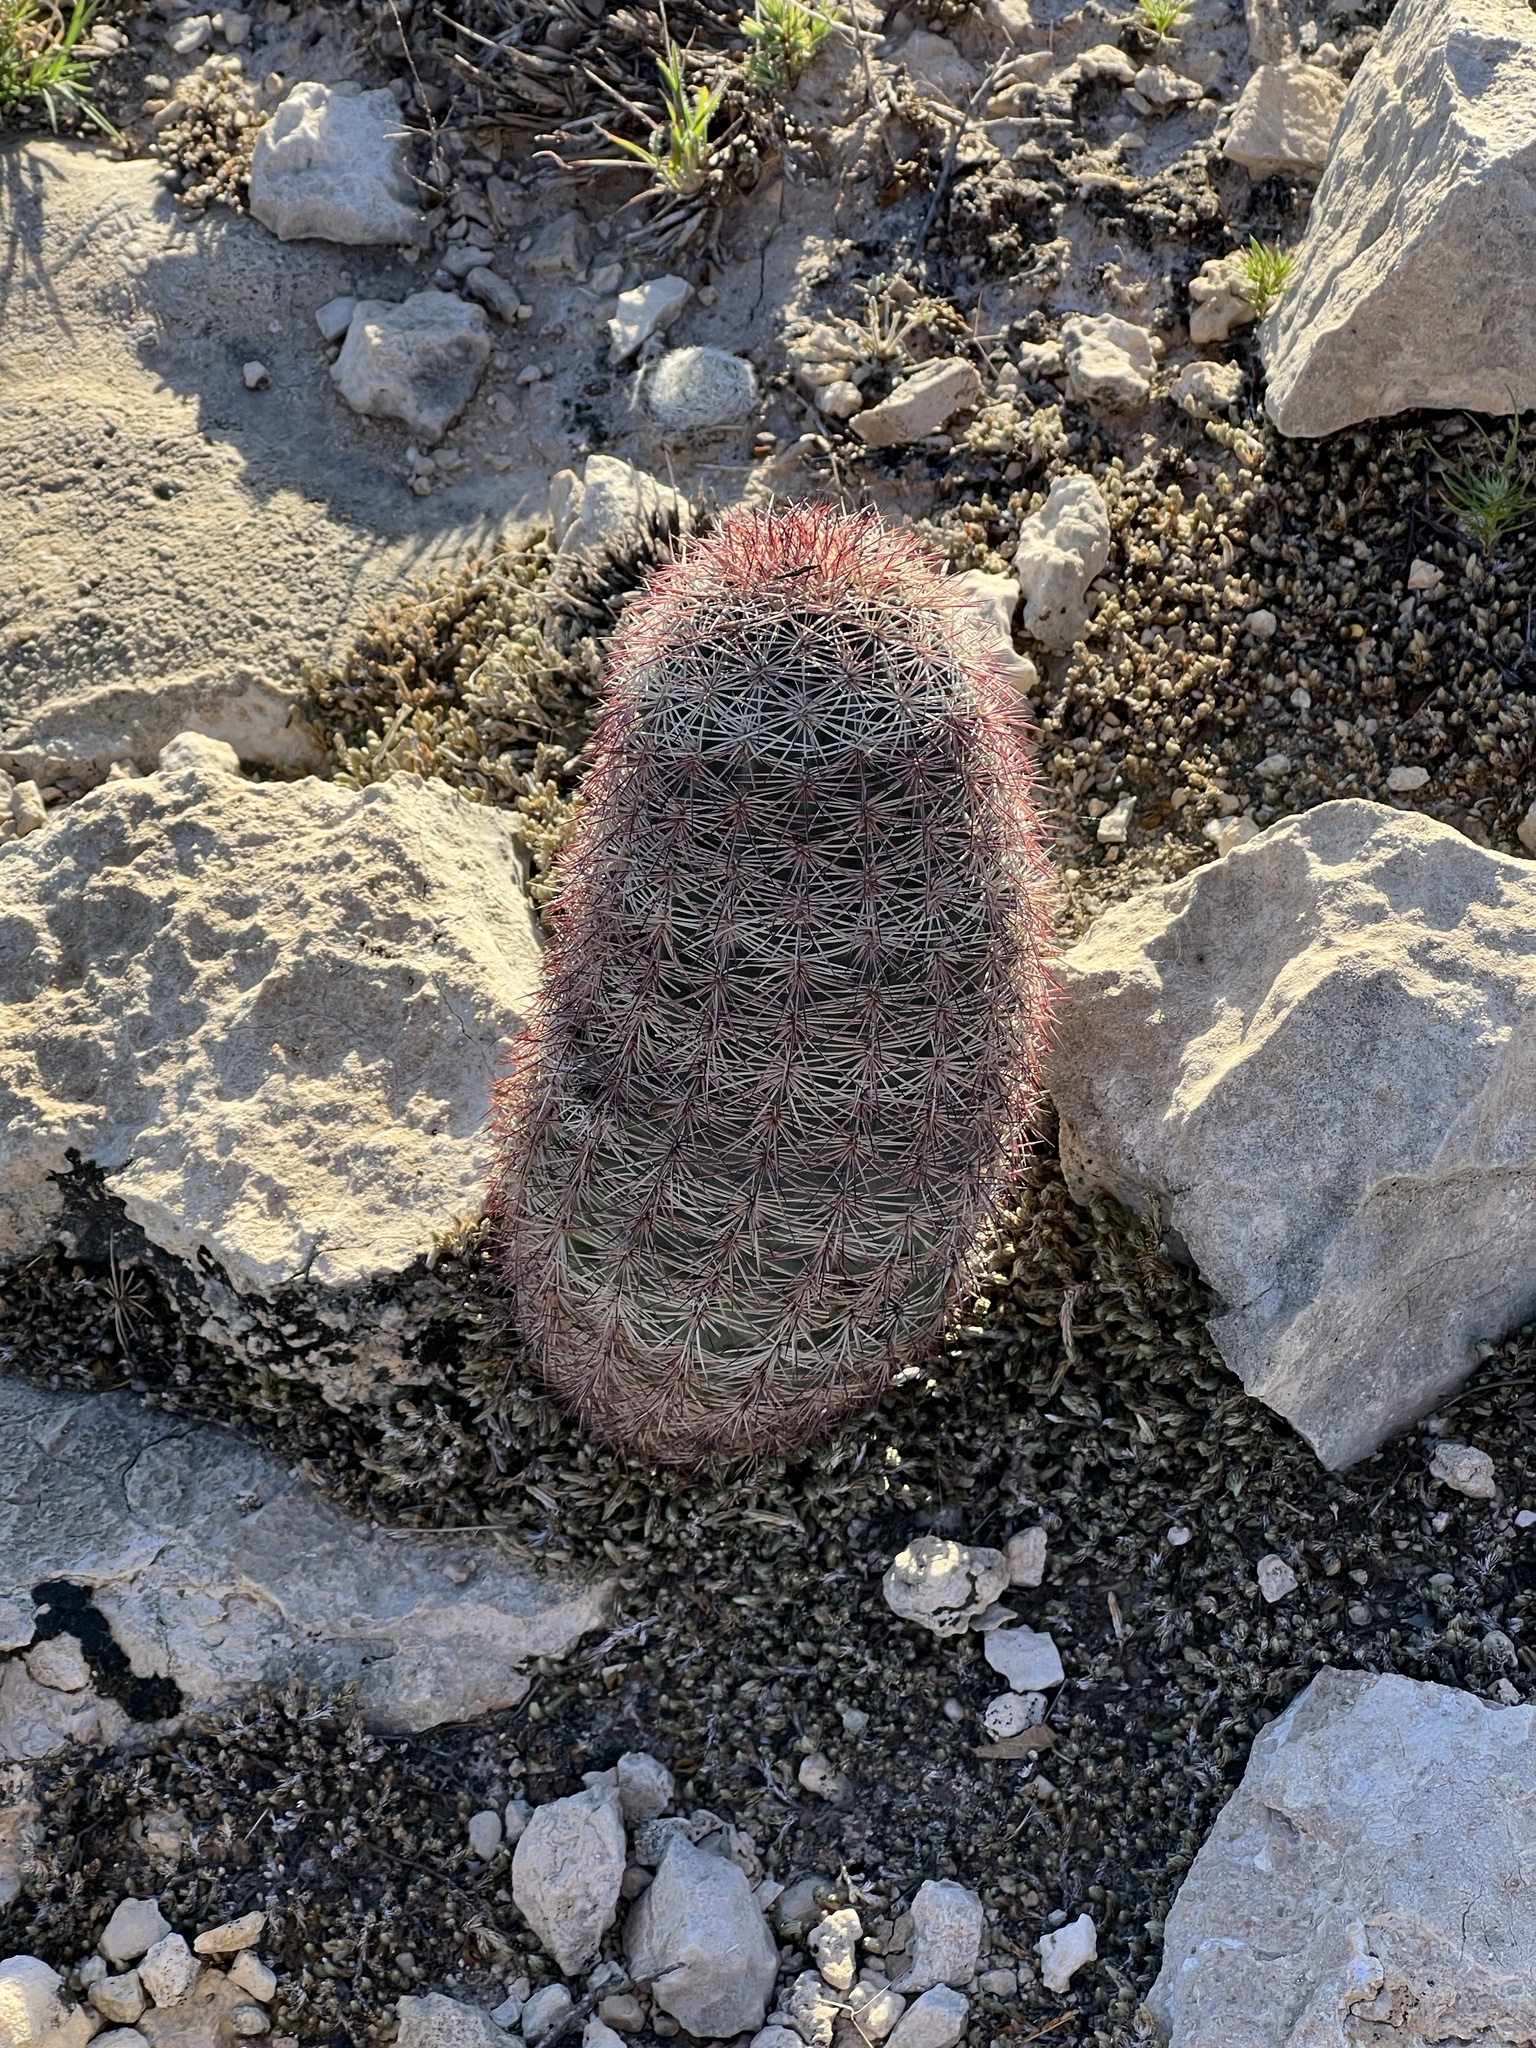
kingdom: Plantae
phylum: Tracheophyta
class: Magnoliopsida
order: Caryophyllales
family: Cactaceae
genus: Echinocereus
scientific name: Echinocereus dasyacanthus
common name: Spiny hedgehog cactus
